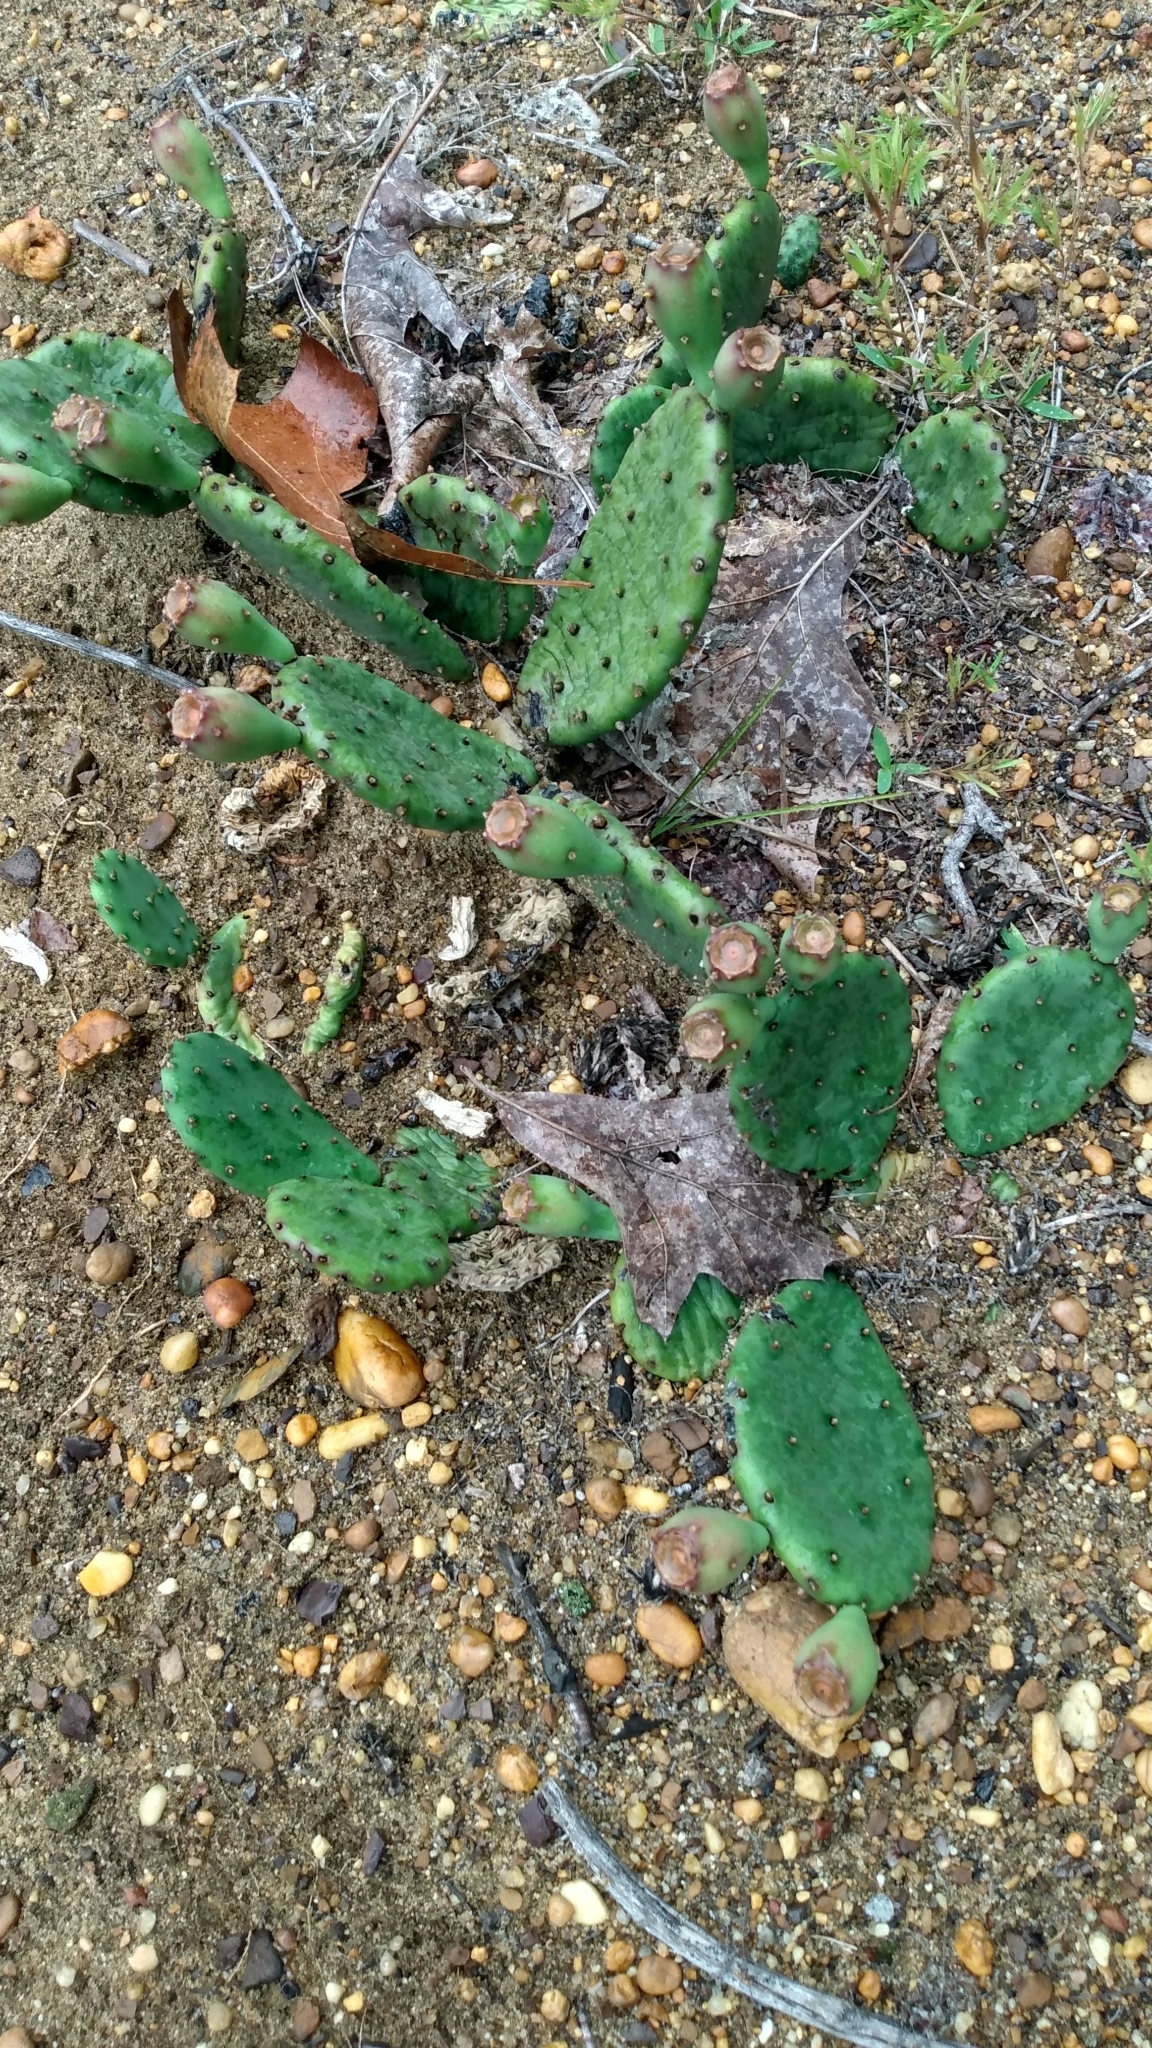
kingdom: Plantae
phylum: Tracheophyta
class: Magnoliopsida
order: Caryophyllales
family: Cactaceae
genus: Opuntia
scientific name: Opuntia humifusa
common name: Eastern prickly-pear
